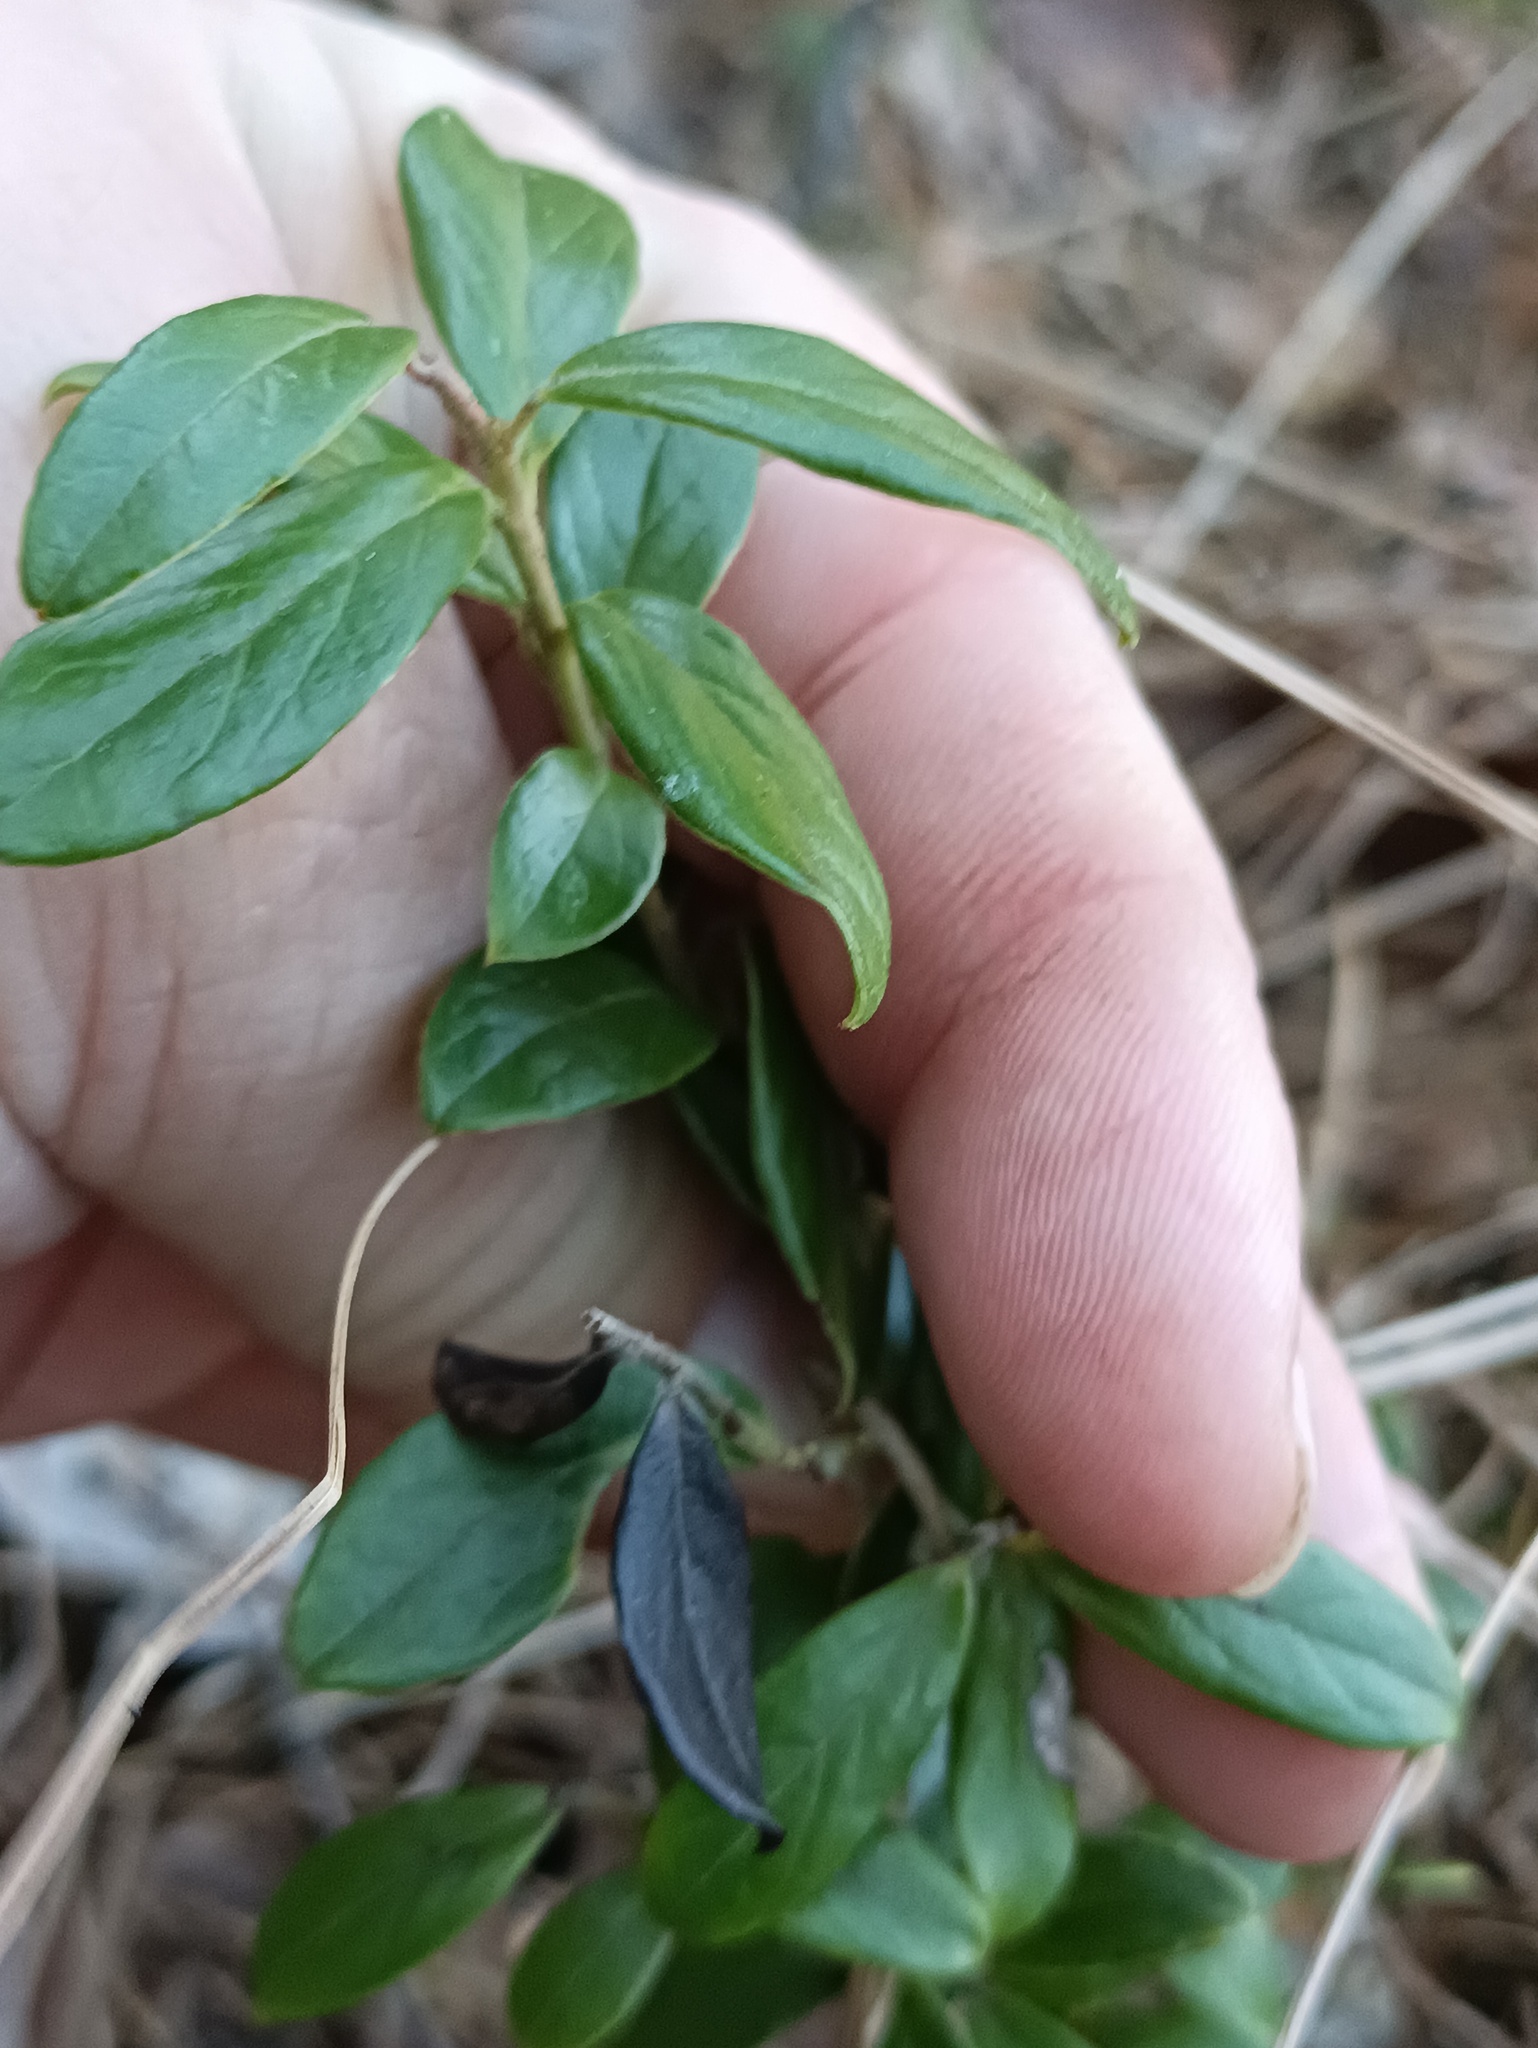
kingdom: Plantae
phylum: Tracheophyta
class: Magnoliopsida
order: Ericales
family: Ericaceae
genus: Vaccinium
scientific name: Vaccinium vitis-idaea
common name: Cowberry
